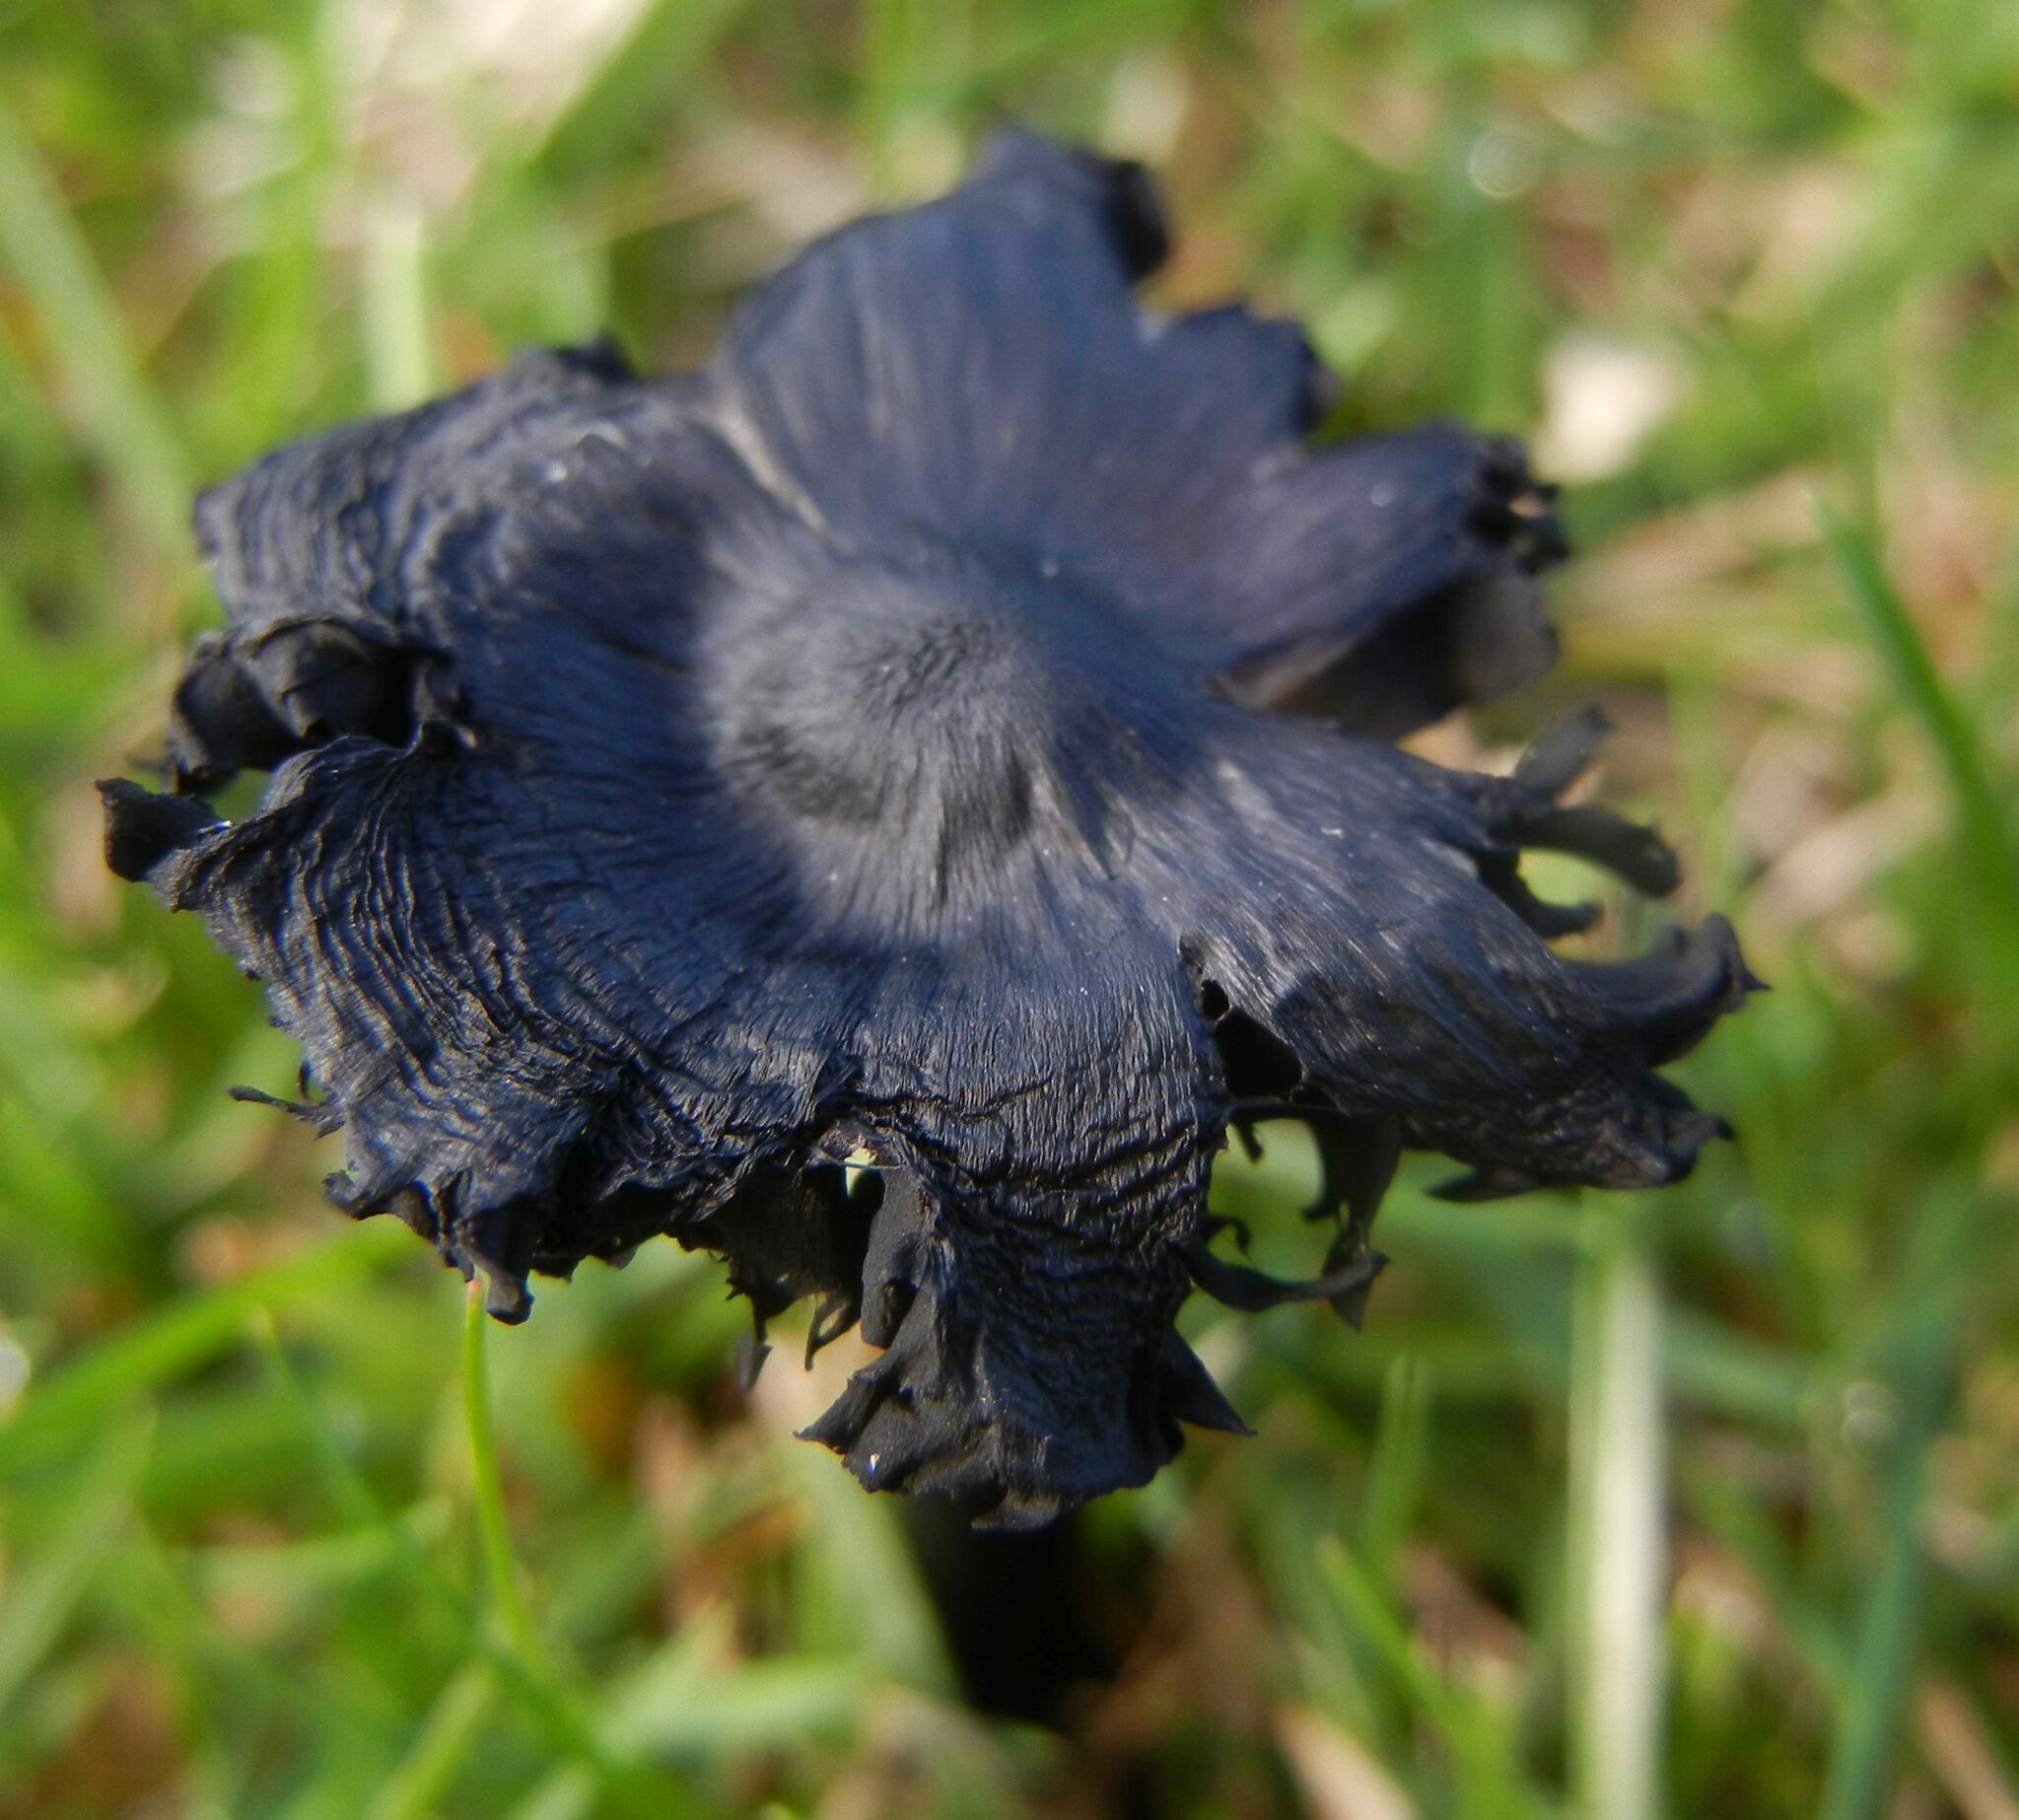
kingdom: Fungi
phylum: Basidiomycota
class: Agaricomycetes
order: Agaricales
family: Hygrophoraceae
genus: Hygrocybe
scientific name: Hygrocybe conica
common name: Blackening wax-cap
